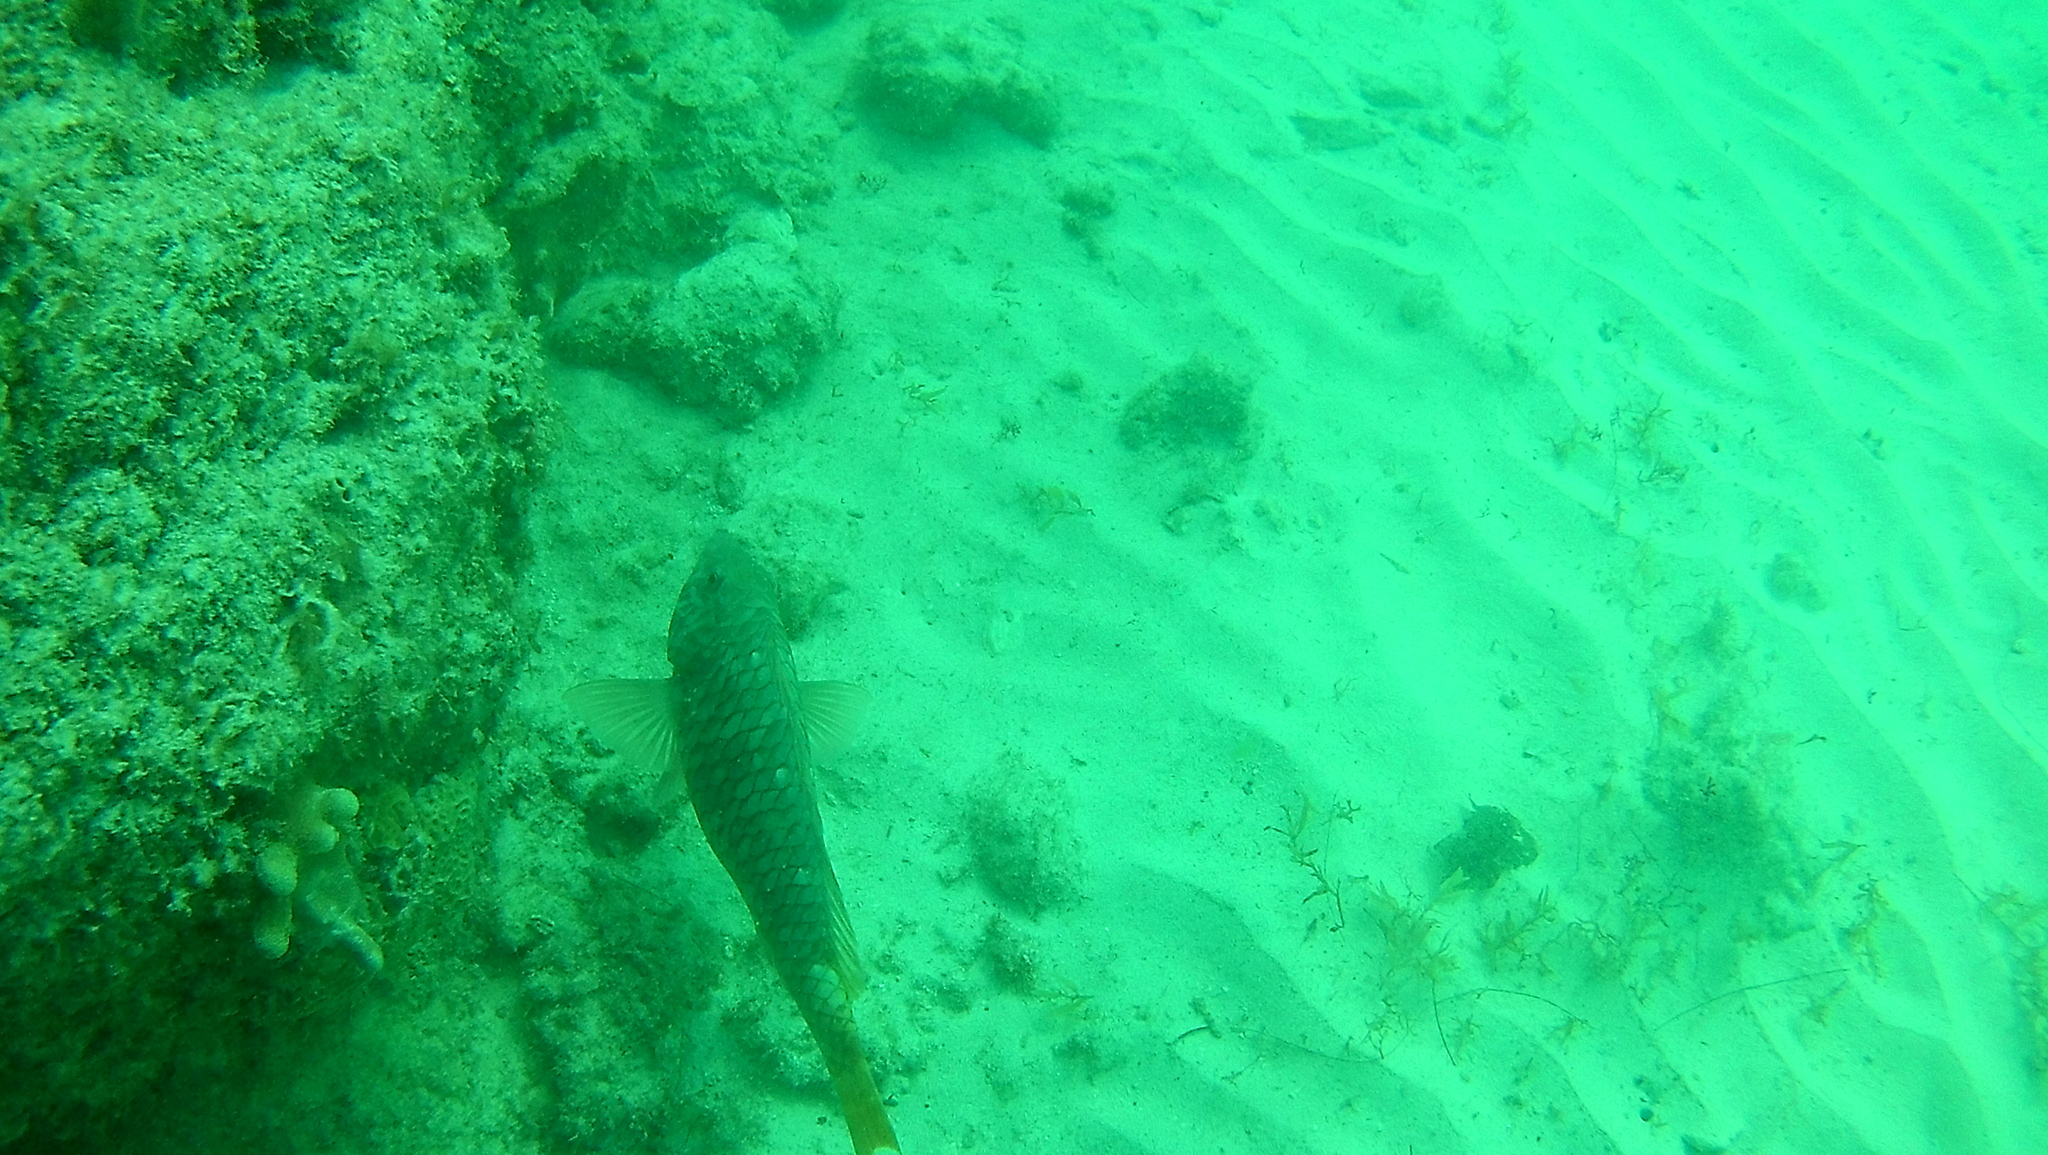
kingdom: Animalia
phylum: Chordata
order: Perciformes
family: Scaridae
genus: Sparisoma
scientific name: Sparisoma rubripinne
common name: Redfin parrotfish
